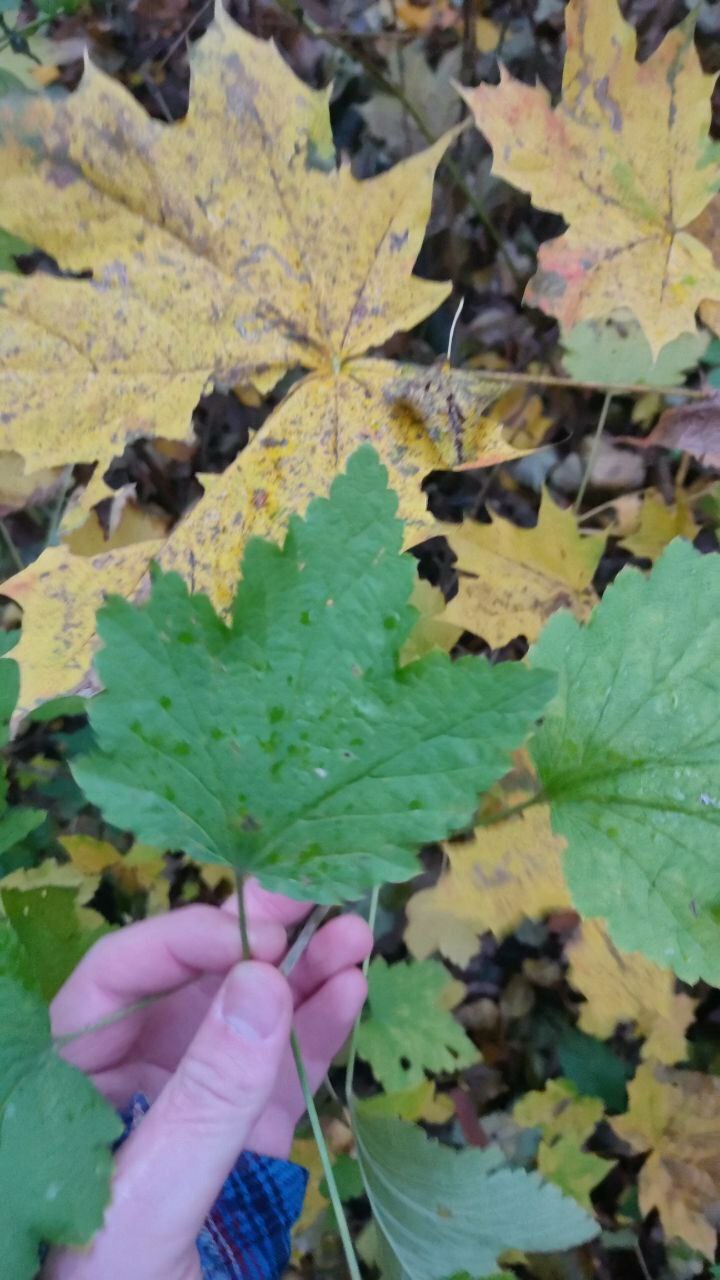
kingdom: Plantae
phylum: Tracheophyta
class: Magnoliopsida
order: Rosales
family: Rosaceae
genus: Rubus
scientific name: Rubus idaeus
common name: Raspberry
